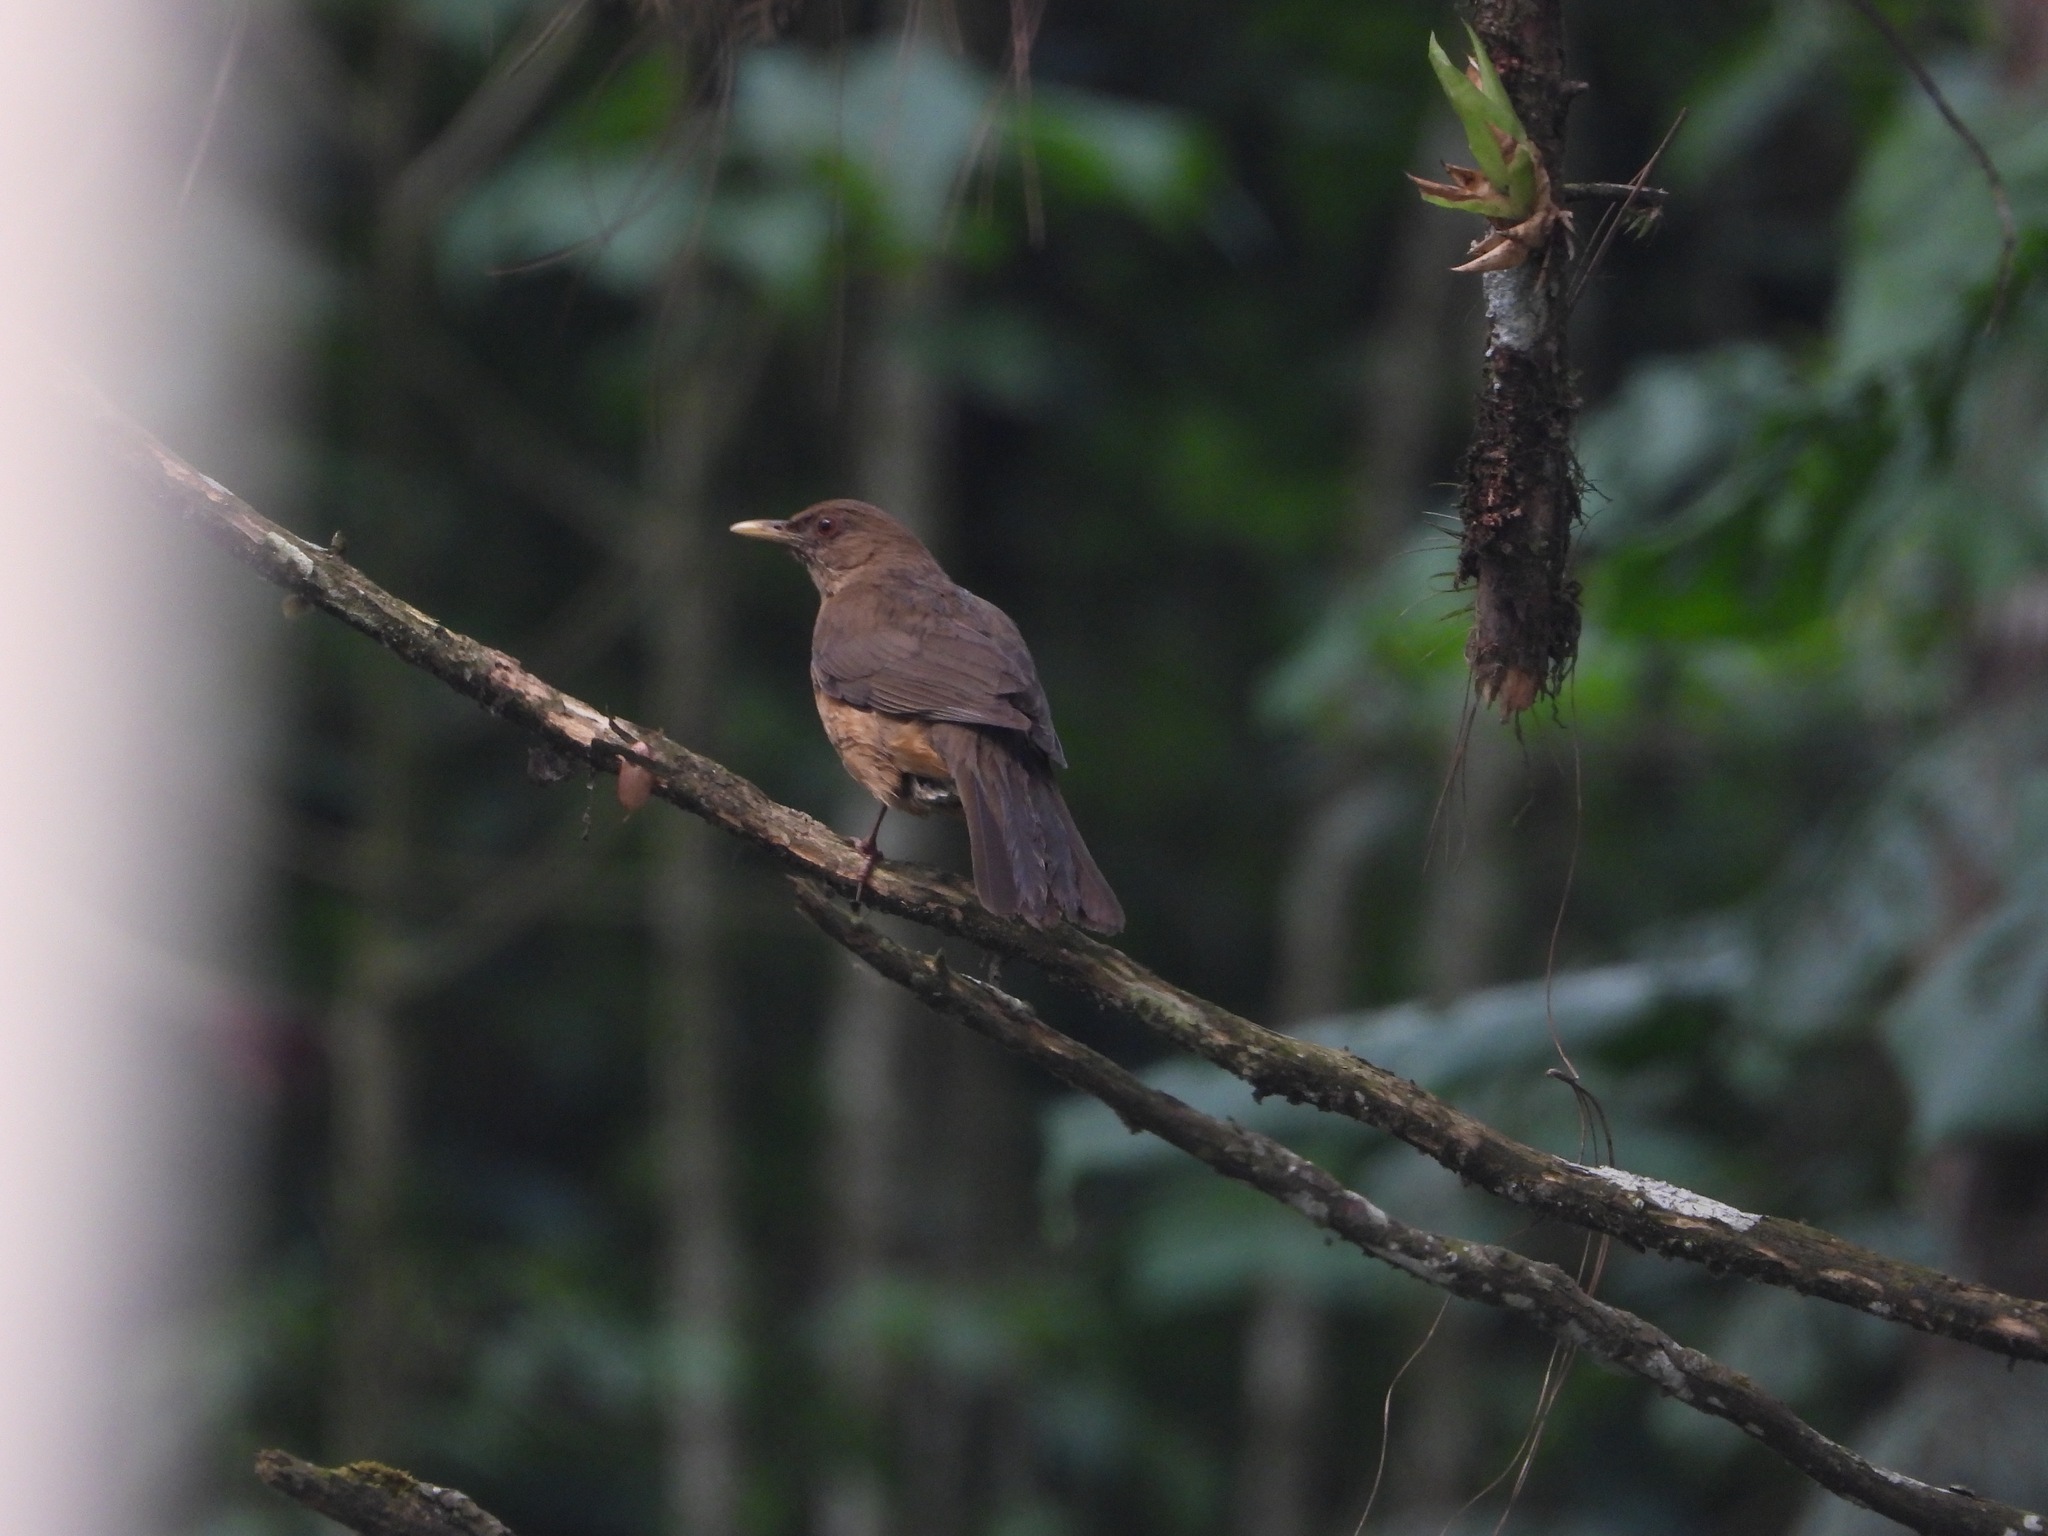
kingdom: Animalia
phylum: Chordata
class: Aves
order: Passeriformes
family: Turdidae
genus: Turdus
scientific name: Turdus grayi
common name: Clay-colored thrush
